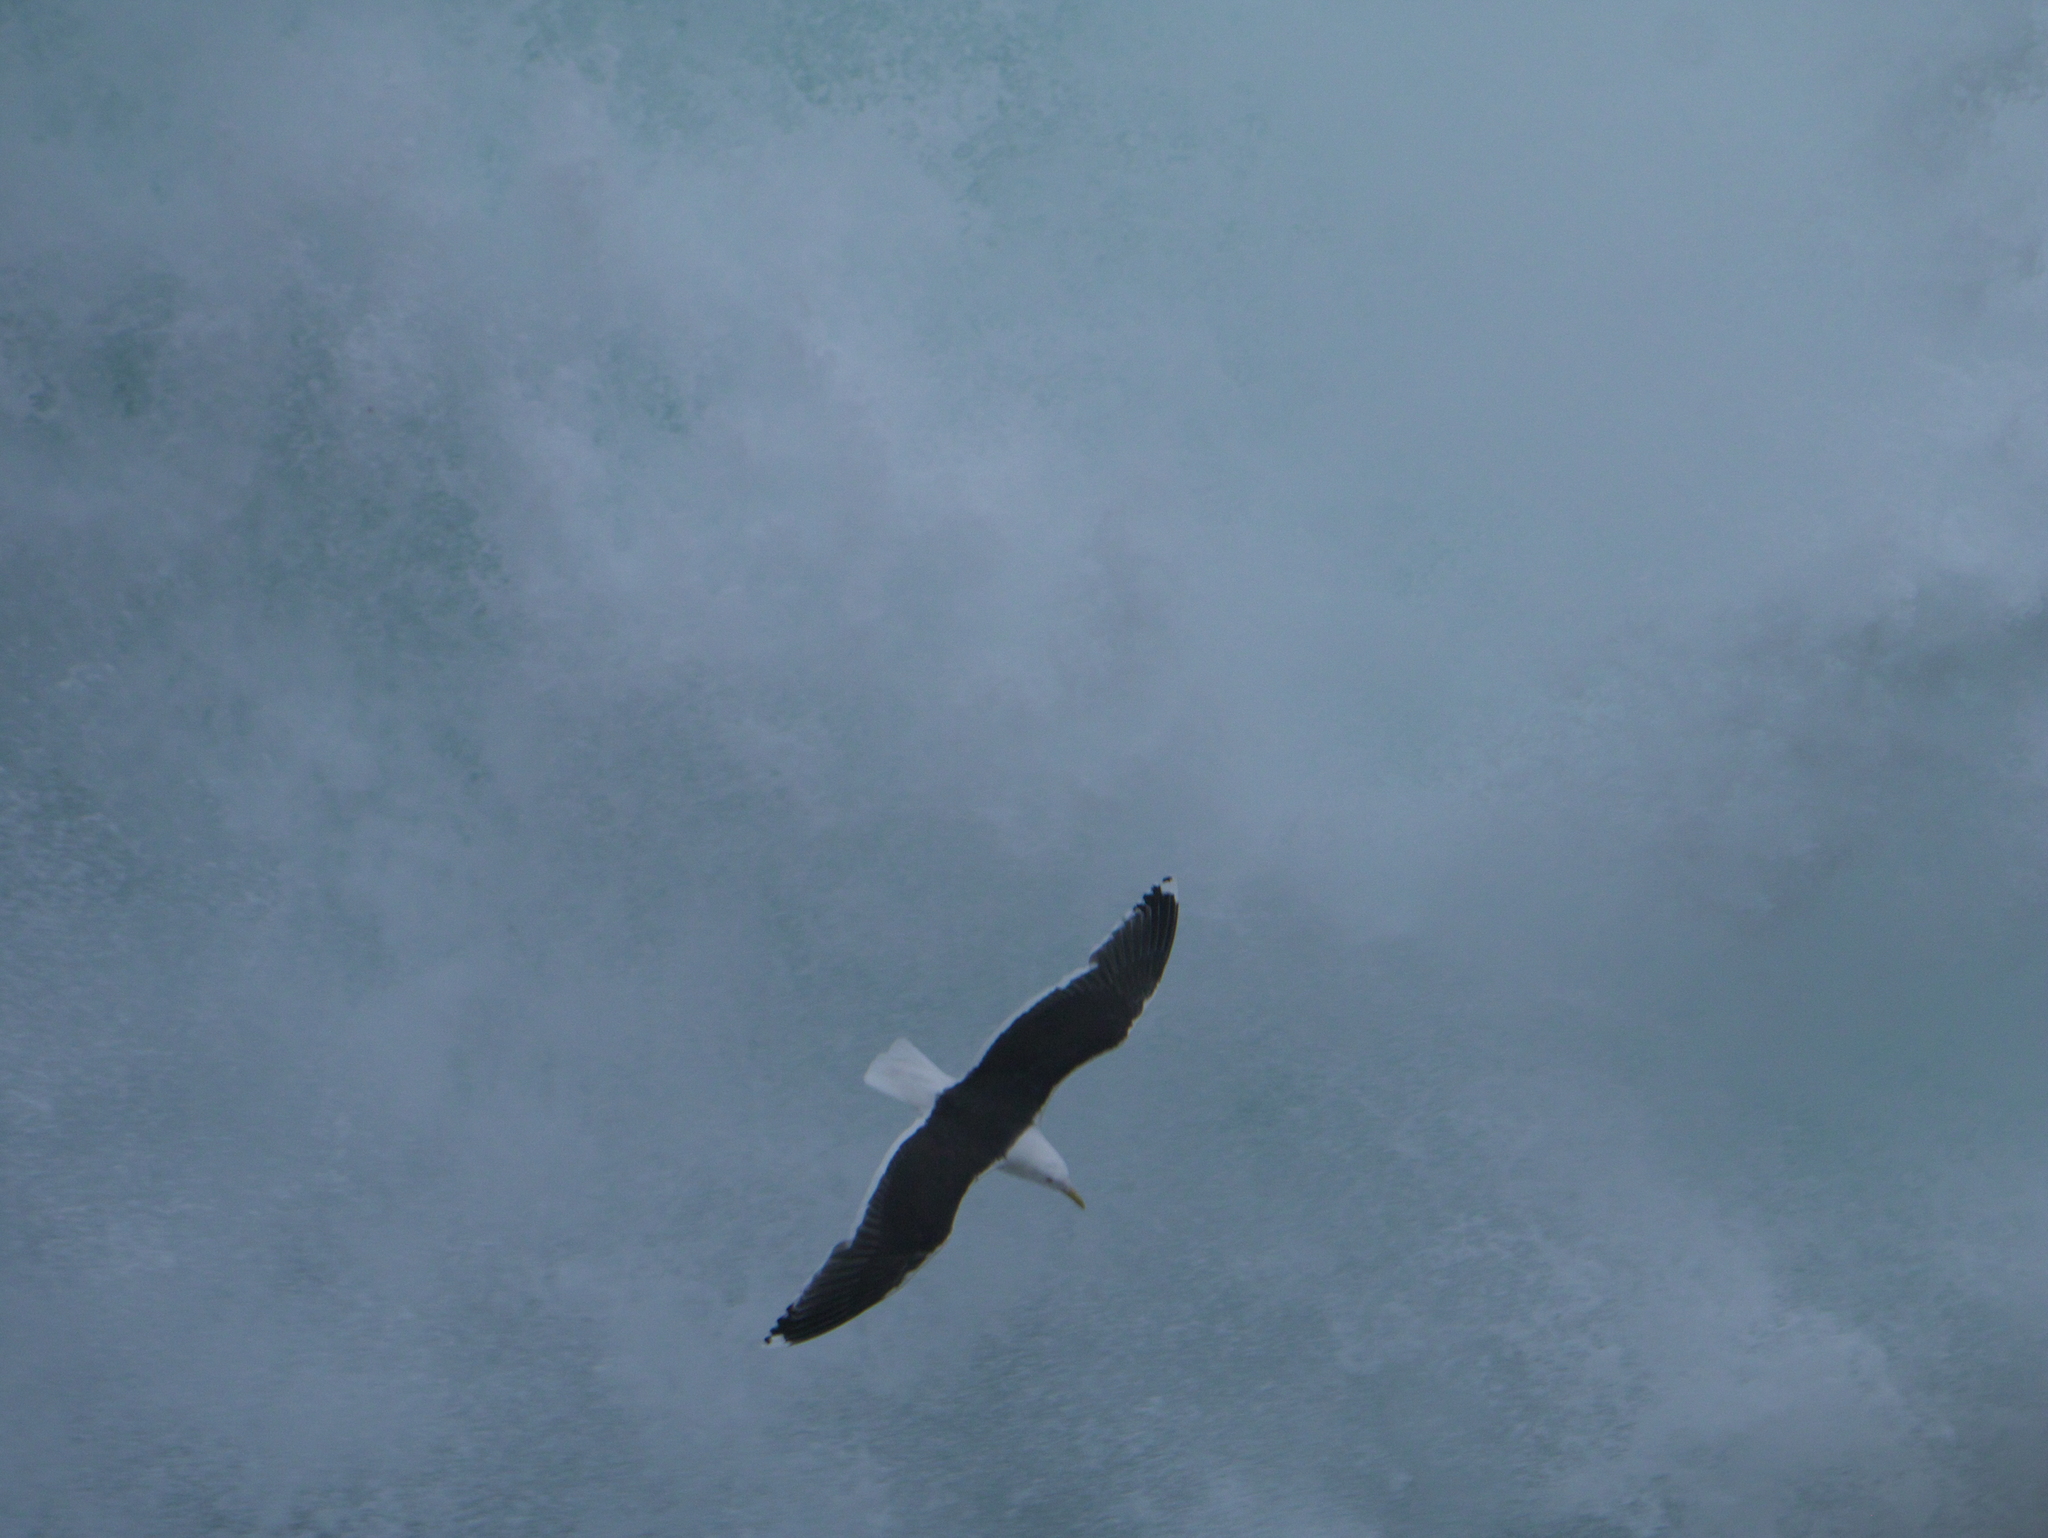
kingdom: Animalia
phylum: Chordata
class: Aves
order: Charadriiformes
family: Laridae
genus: Larus
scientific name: Larus marinus
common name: Great black-backed gull
